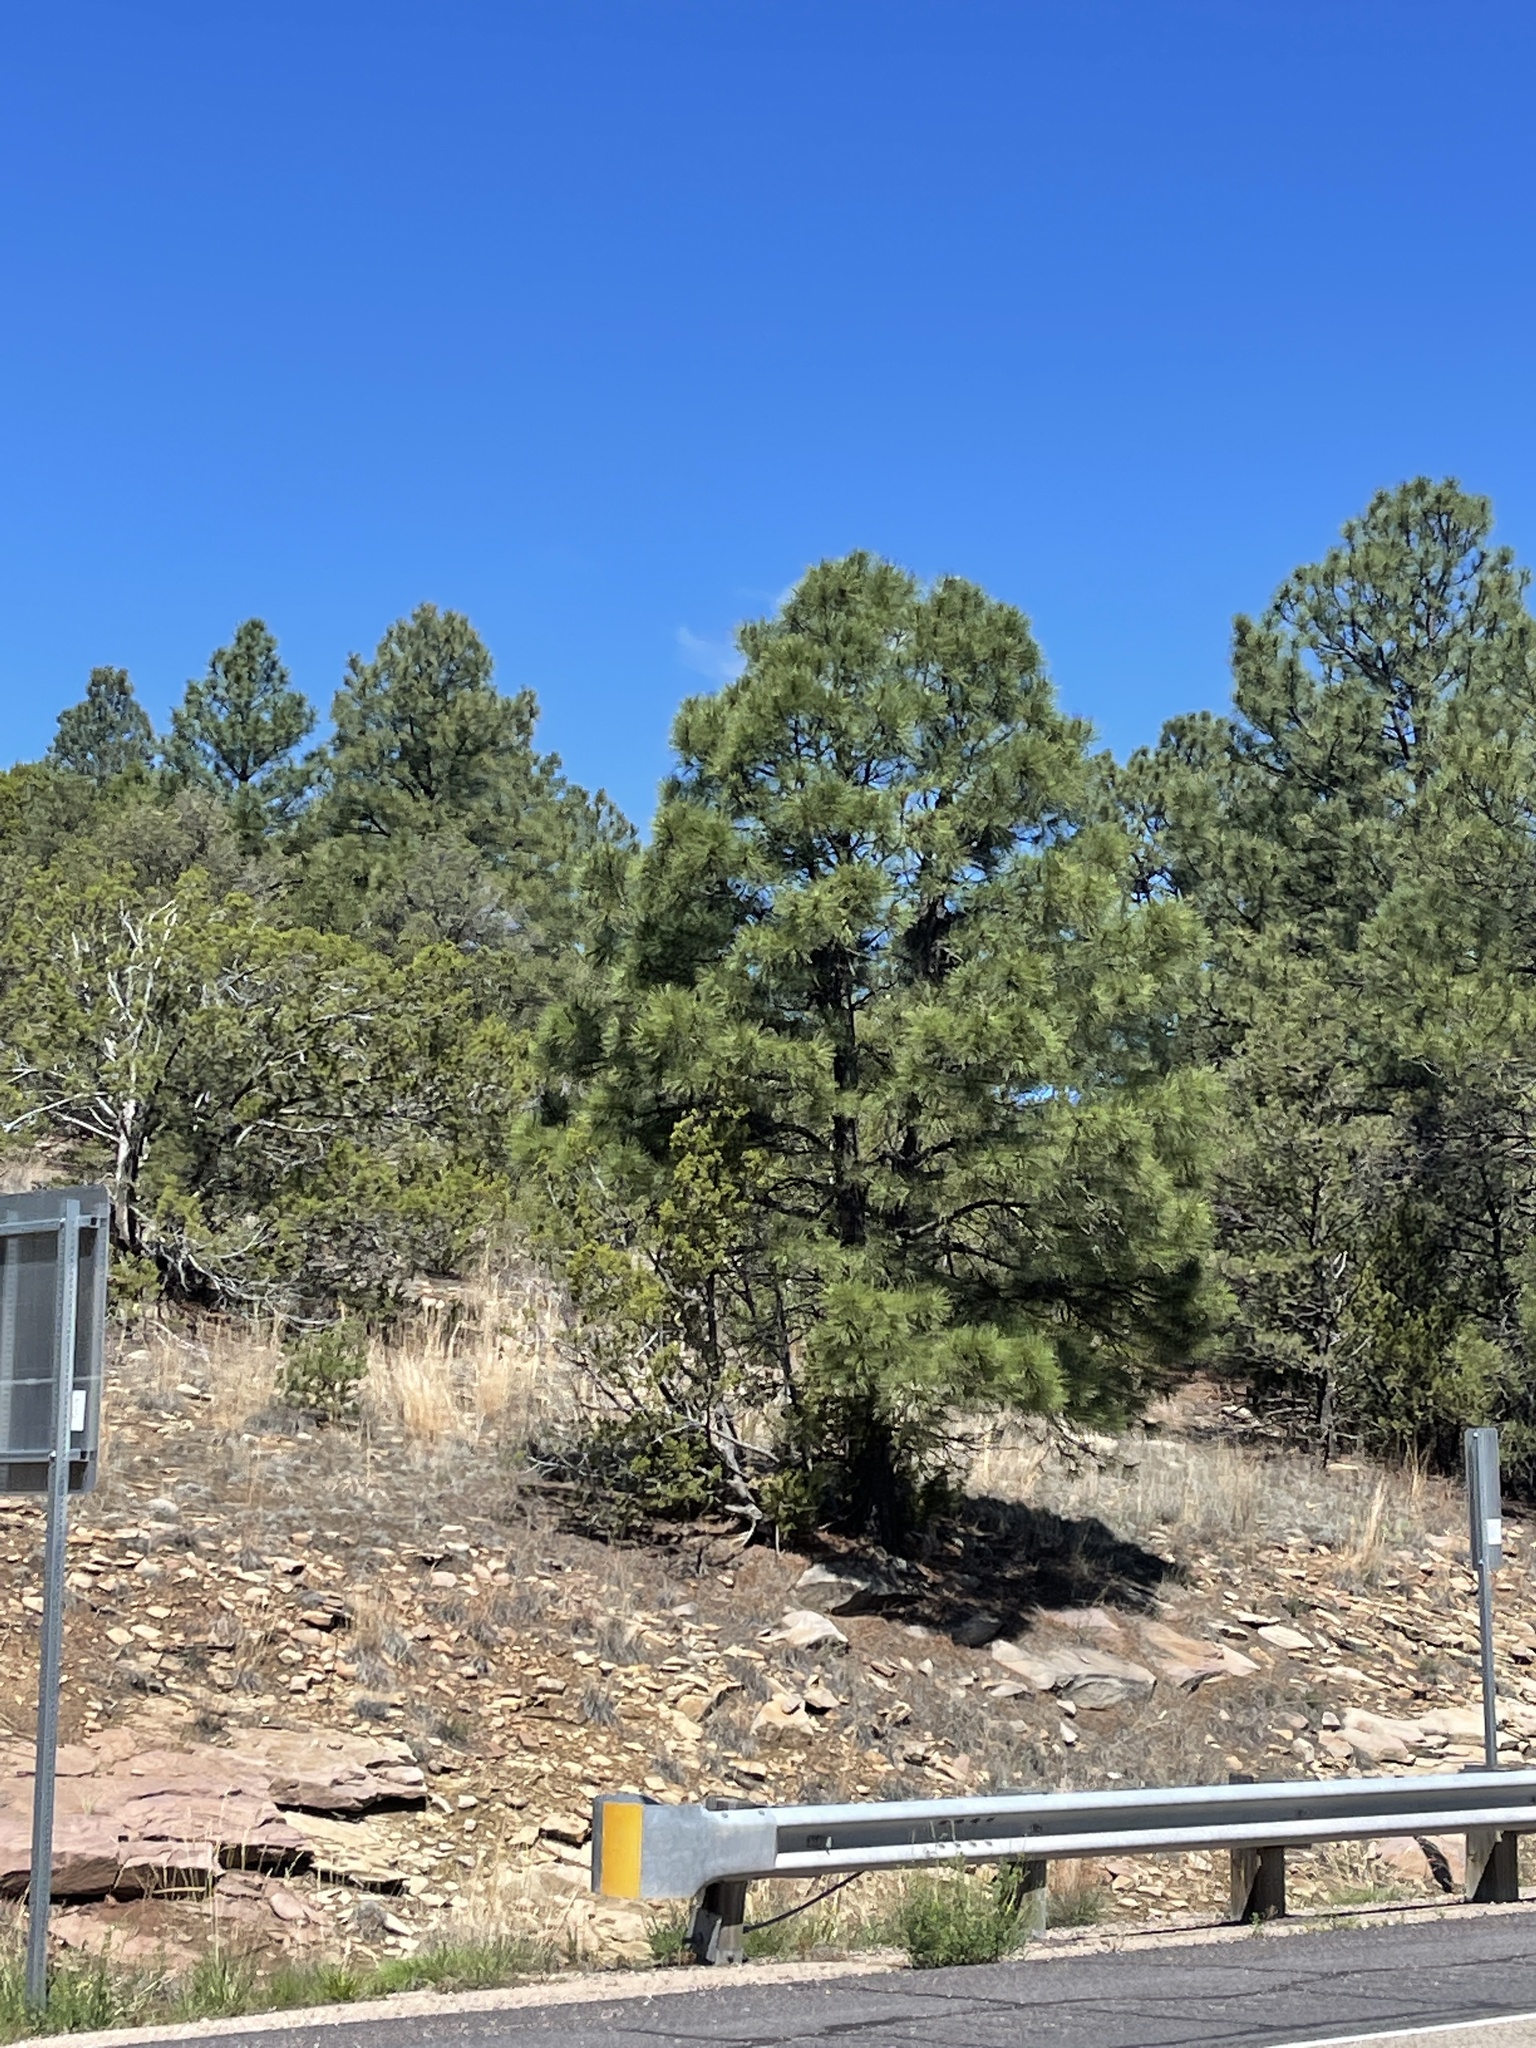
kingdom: Plantae
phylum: Tracheophyta
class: Pinopsida
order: Pinales
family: Pinaceae
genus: Pinus
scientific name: Pinus ponderosa
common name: Western yellow-pine
